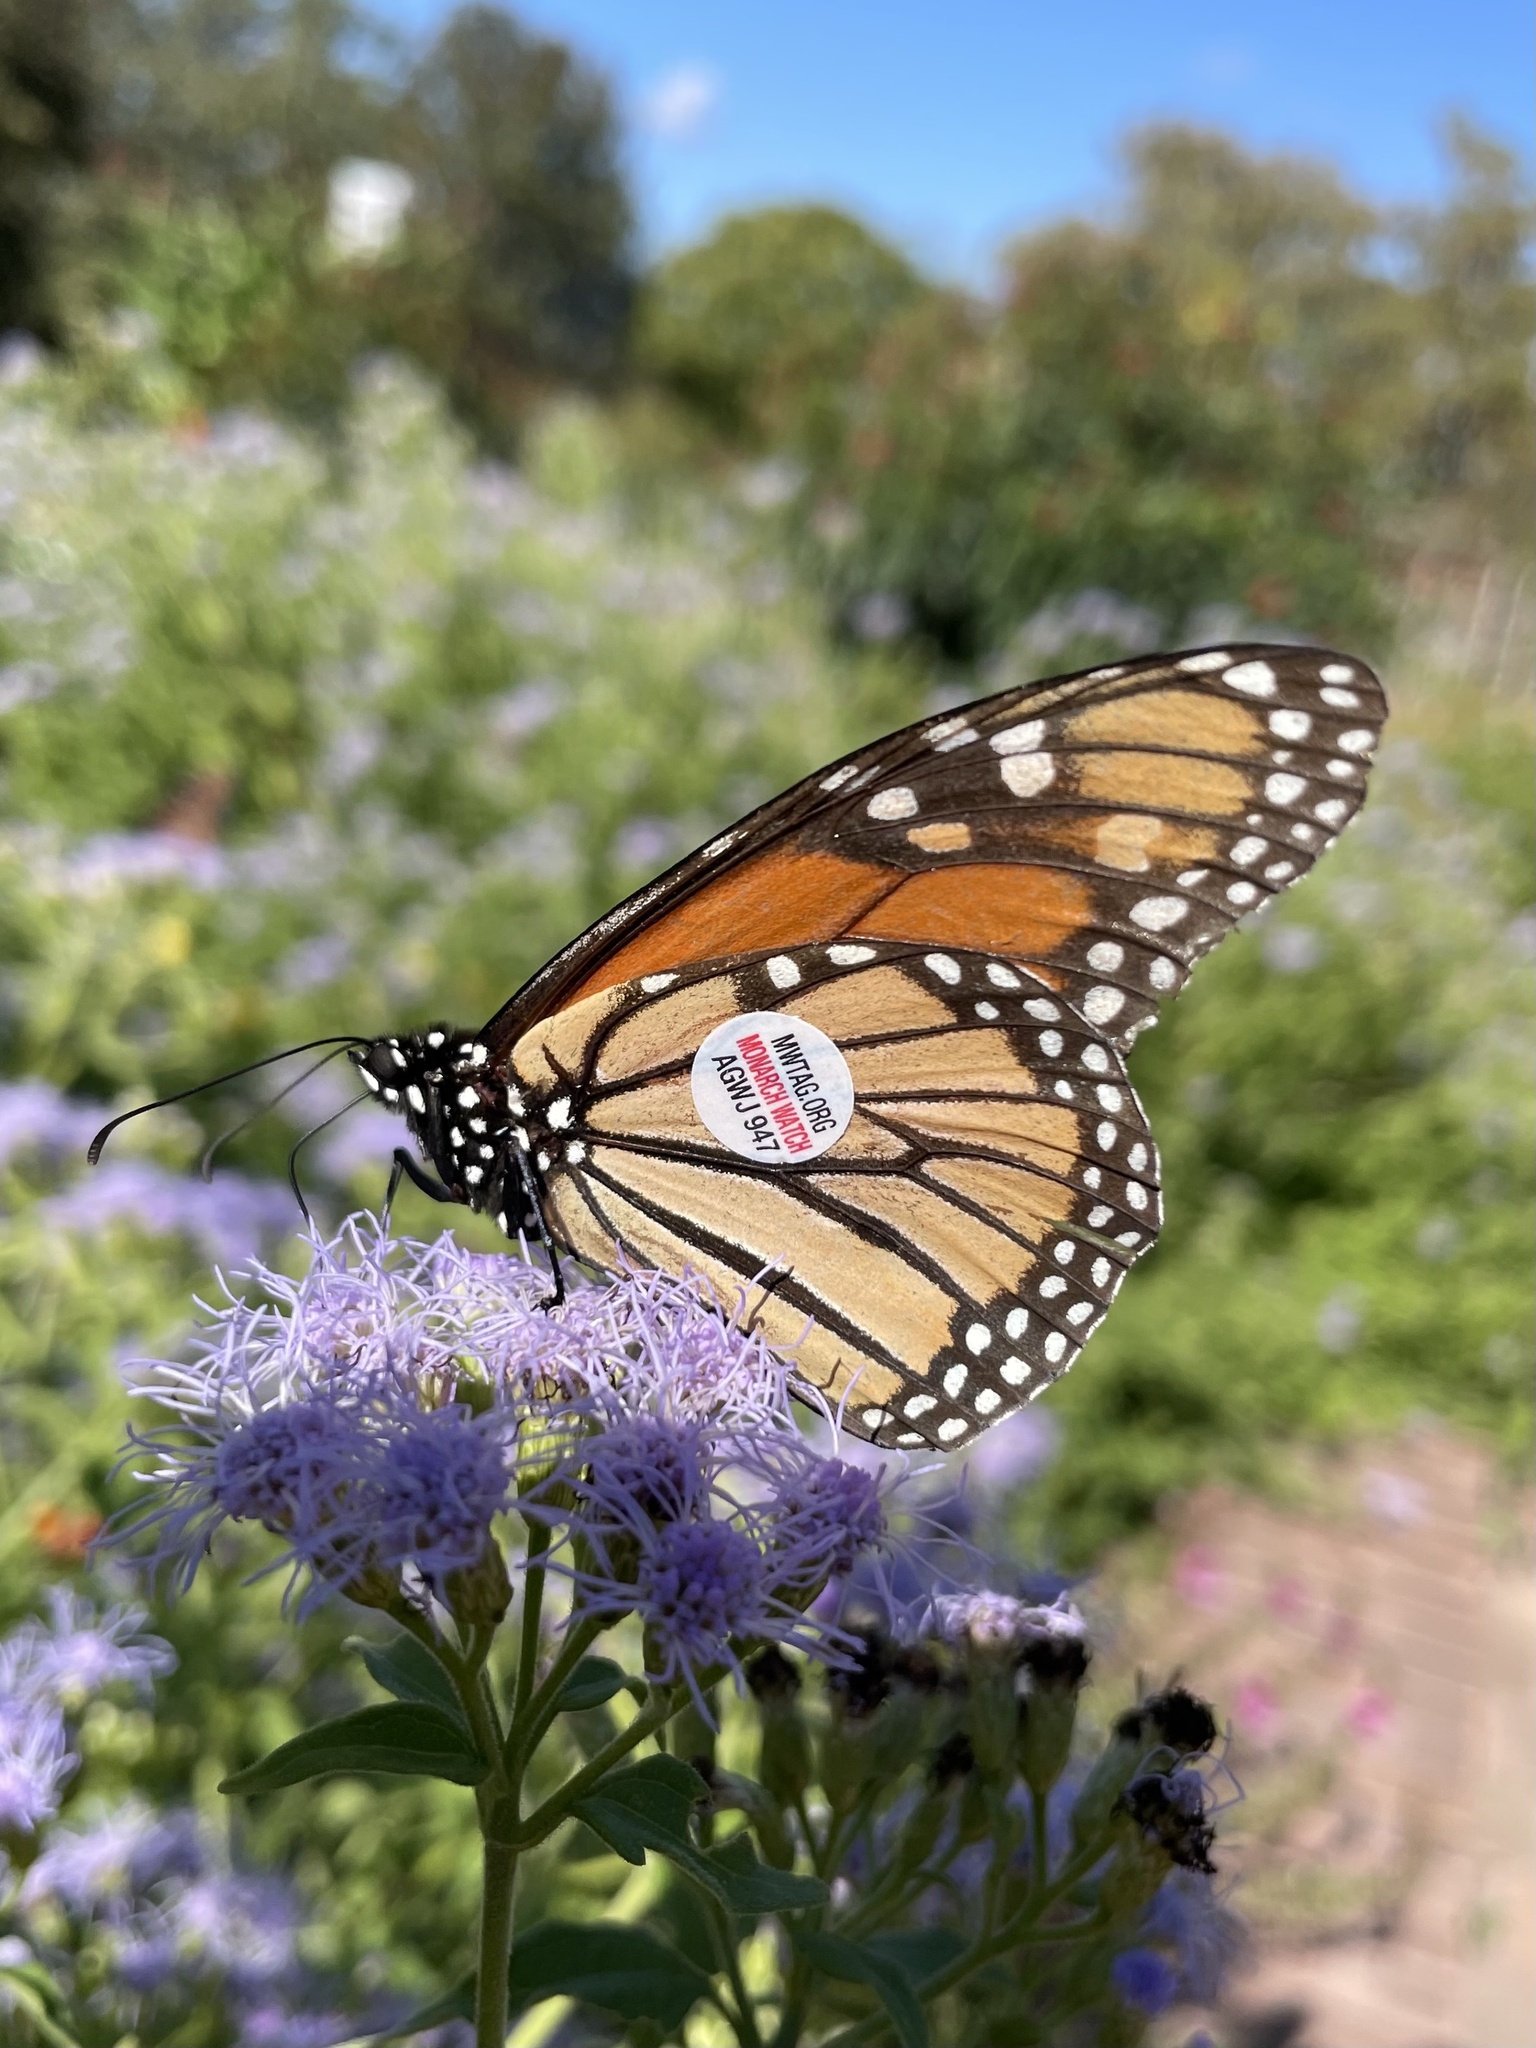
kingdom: Animalia
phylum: Arthropoda
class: Insecta
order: Lepidoptera
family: Nymphalidae
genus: Danaus
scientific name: Danaus plexippus
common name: Monarch
